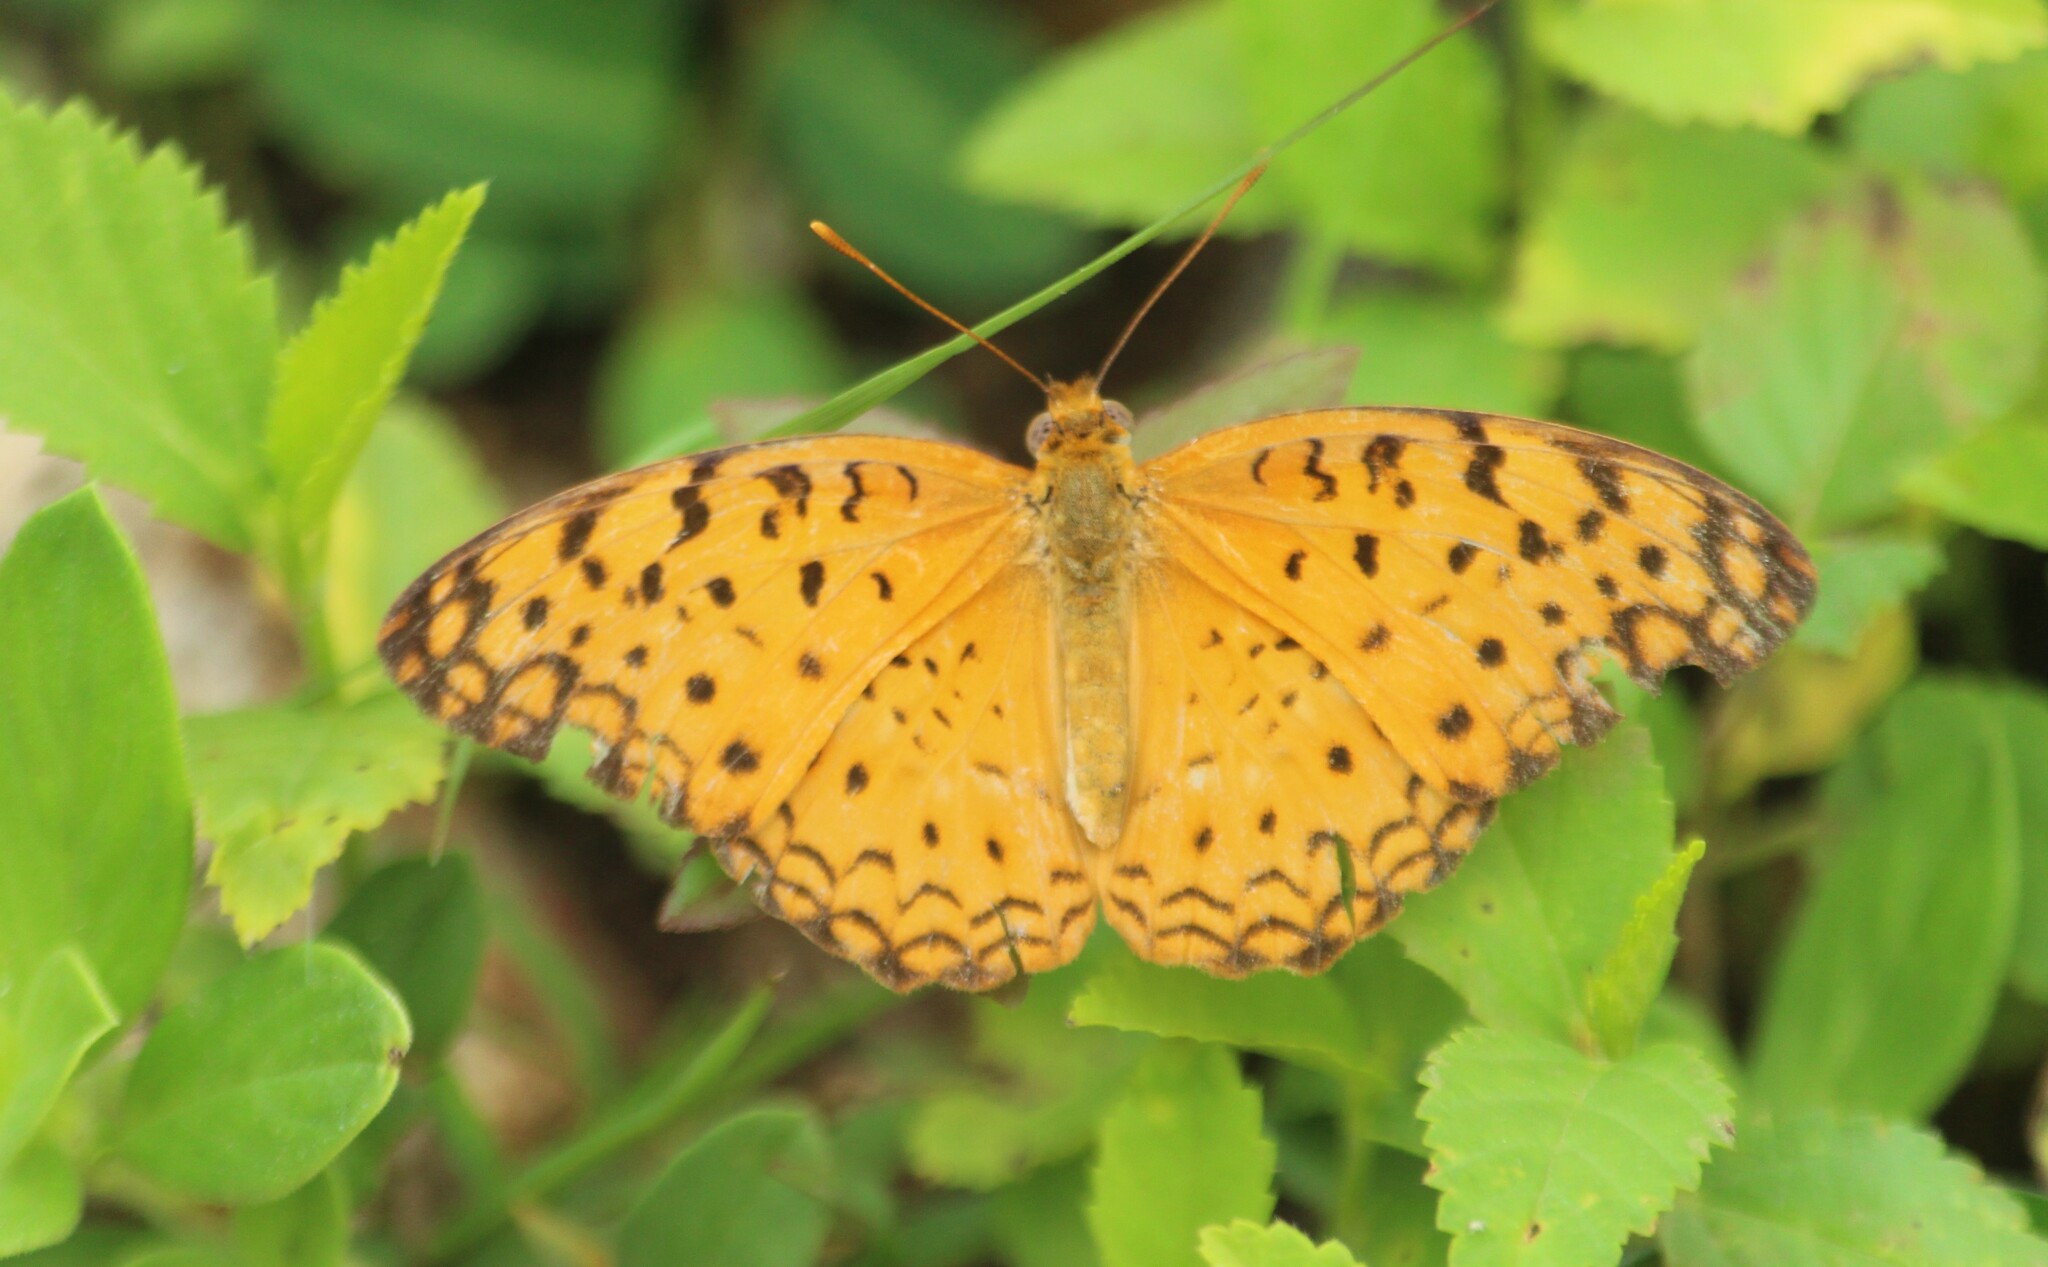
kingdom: Animalia
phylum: Arthropoda
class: Insecta
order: Lepidoptera
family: Nymphalidae
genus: Phalanta
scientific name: Phalanta phalantha
